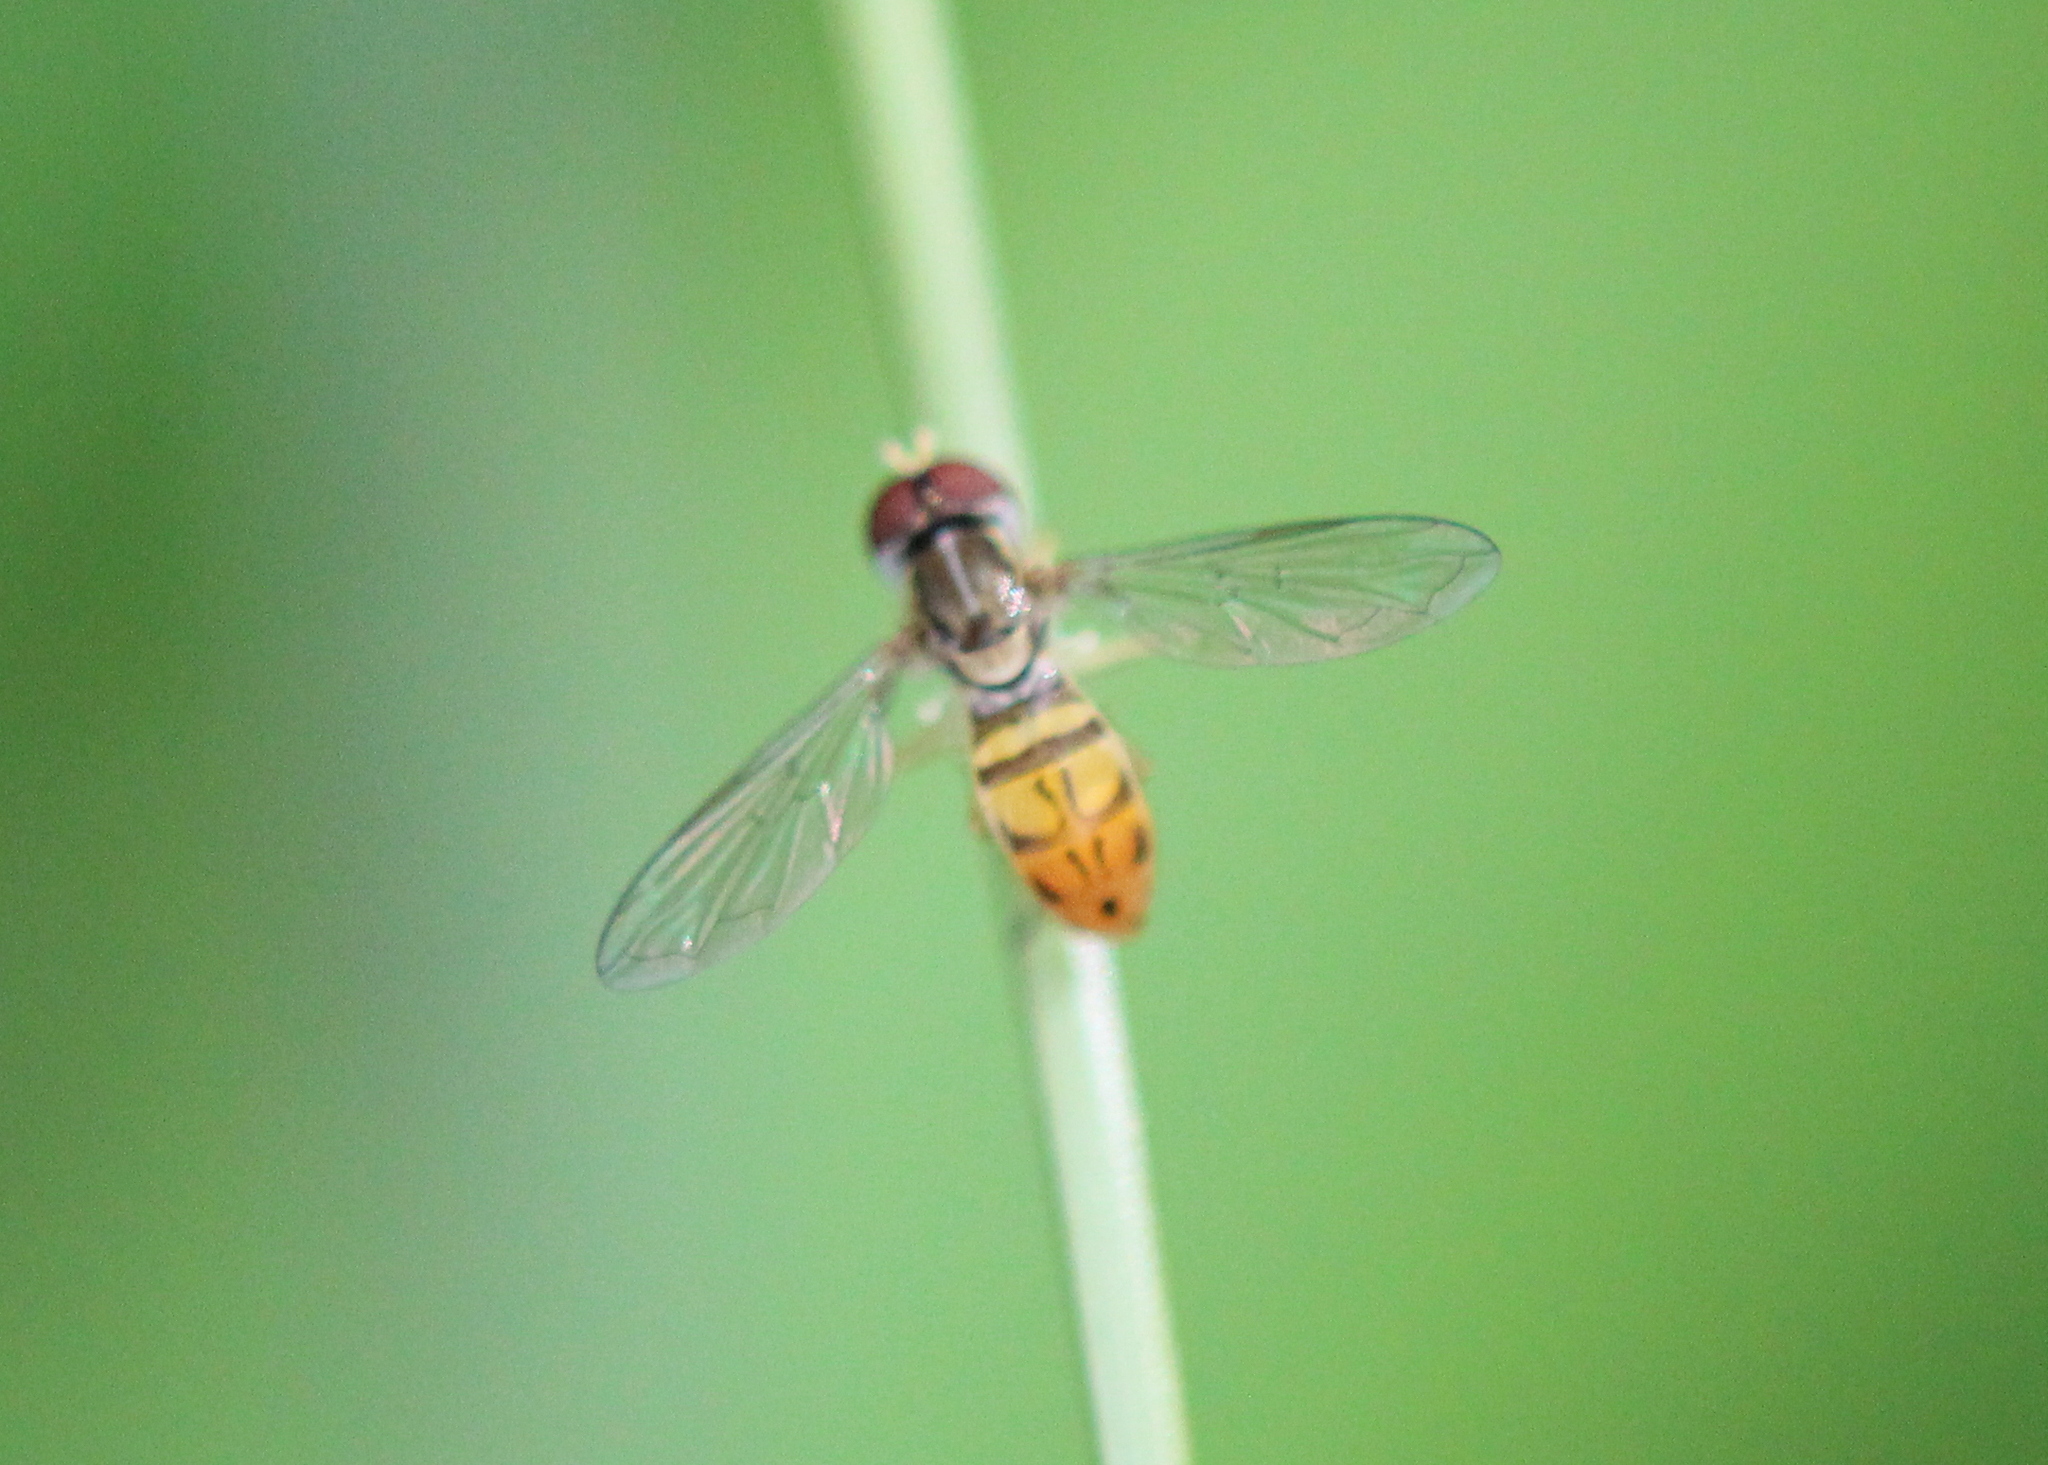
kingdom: Animalia
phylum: Arthropoda
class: Insecta
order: Diptera
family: Syrphidae
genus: Toxomerus
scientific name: Toxomerus marginatus
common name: Syrphid fly
